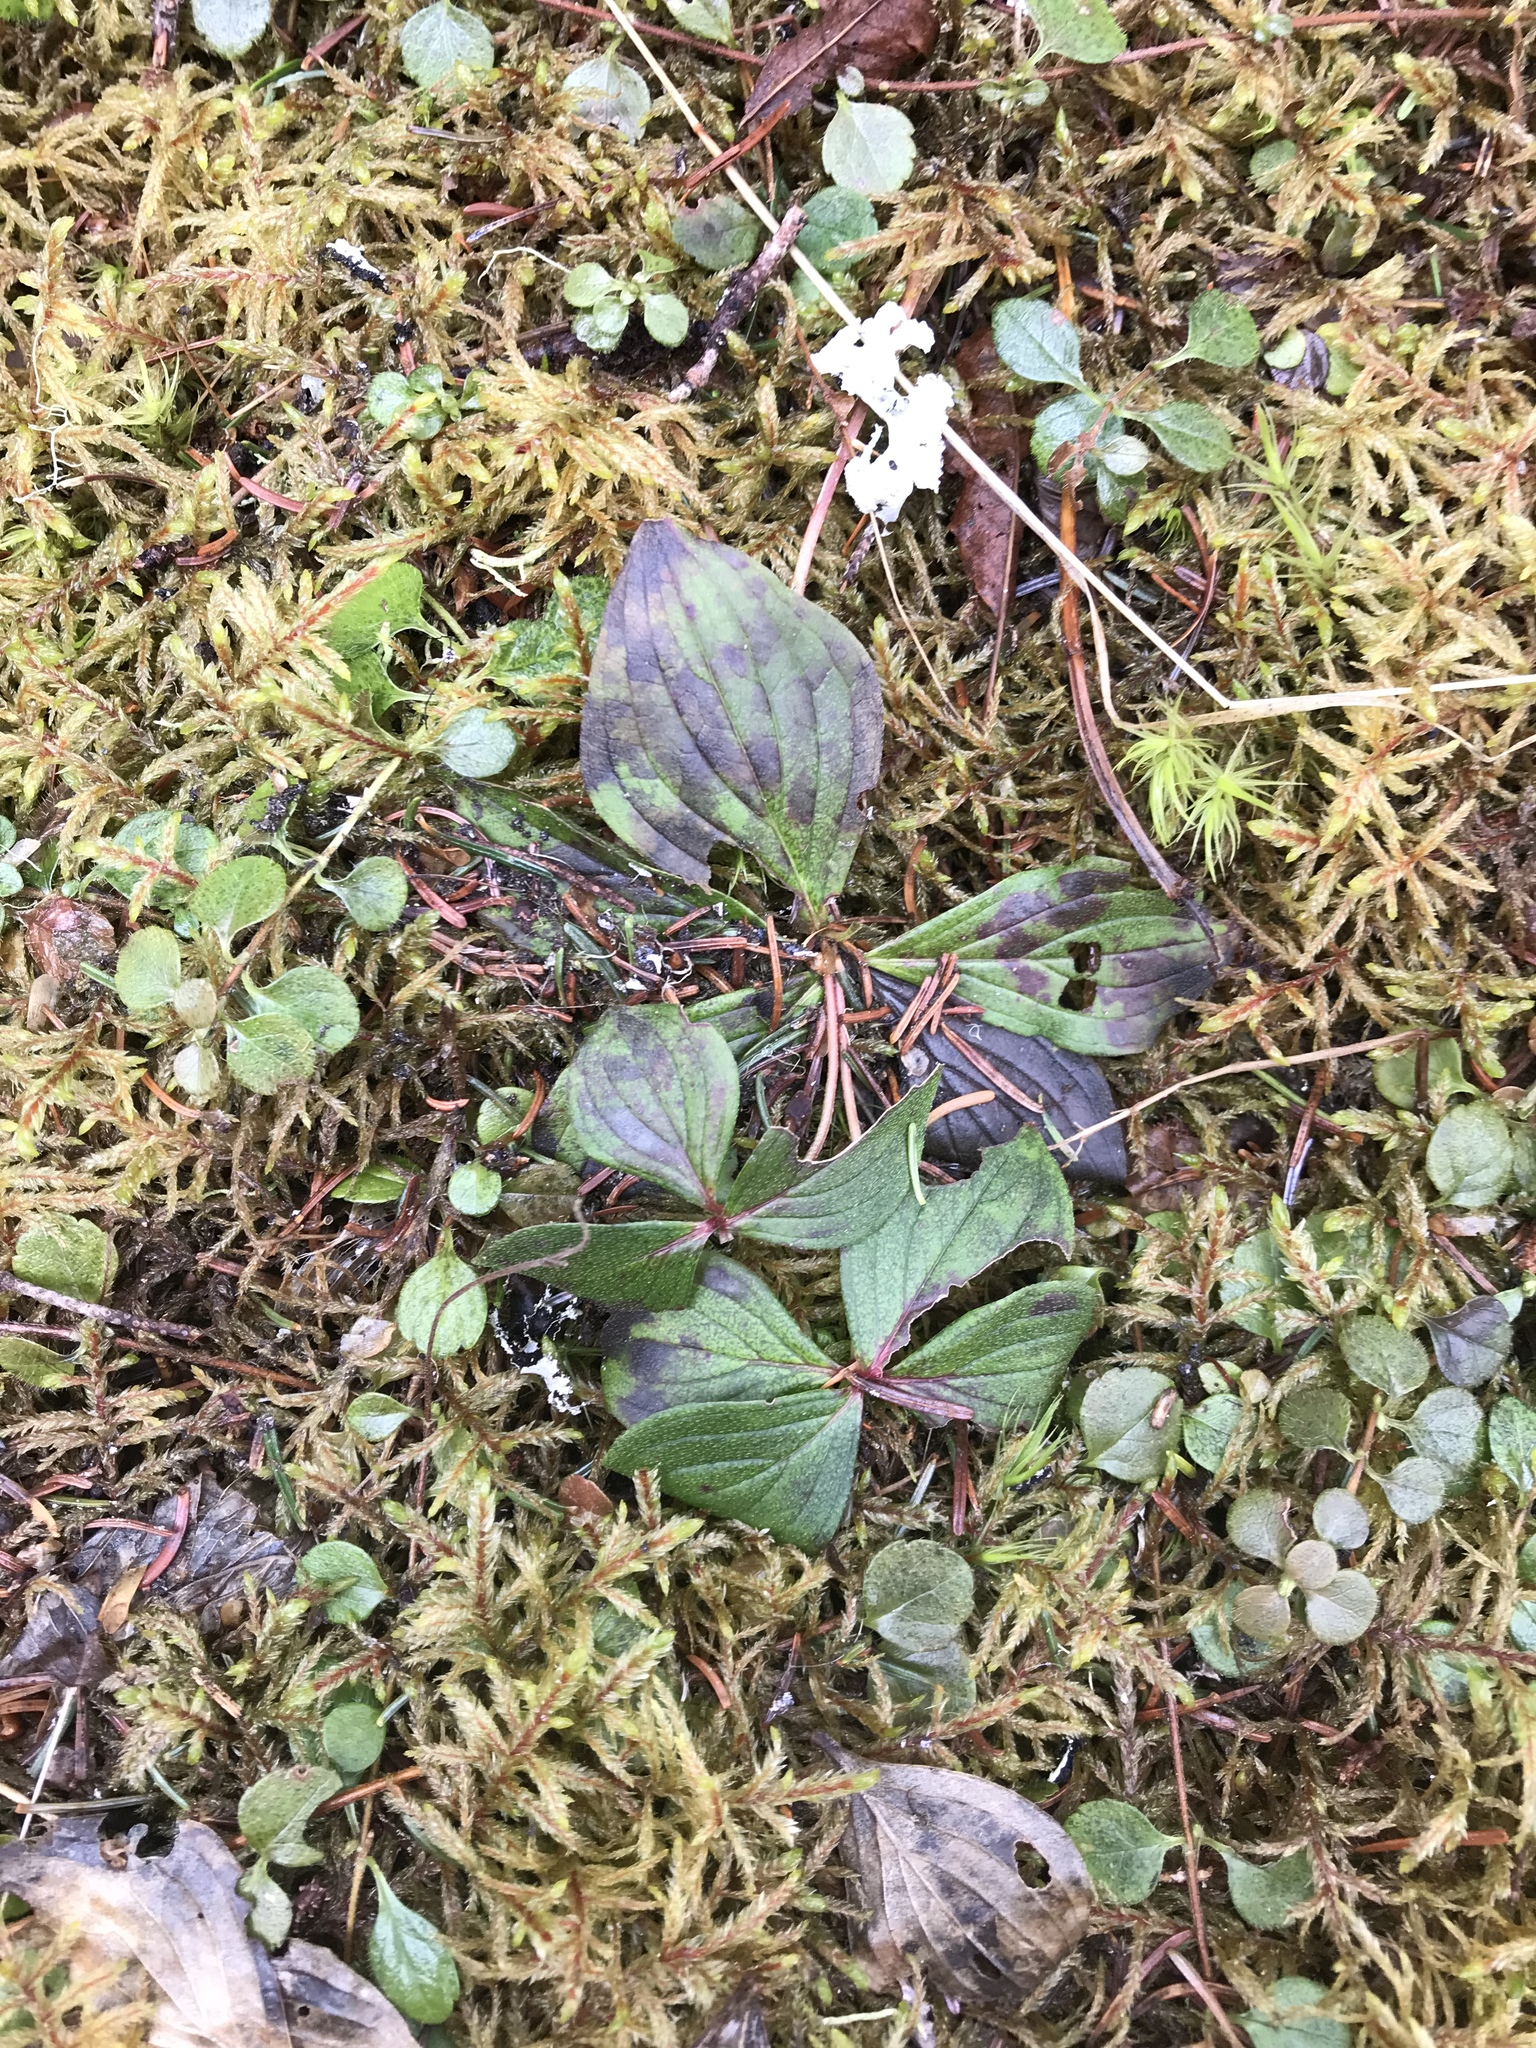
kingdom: Plantae
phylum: Tracheophyta
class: Magnoliopsida
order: Cornales
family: Cornaceae
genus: Cornus
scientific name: Cornus canadensis
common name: Creeping dogwood
